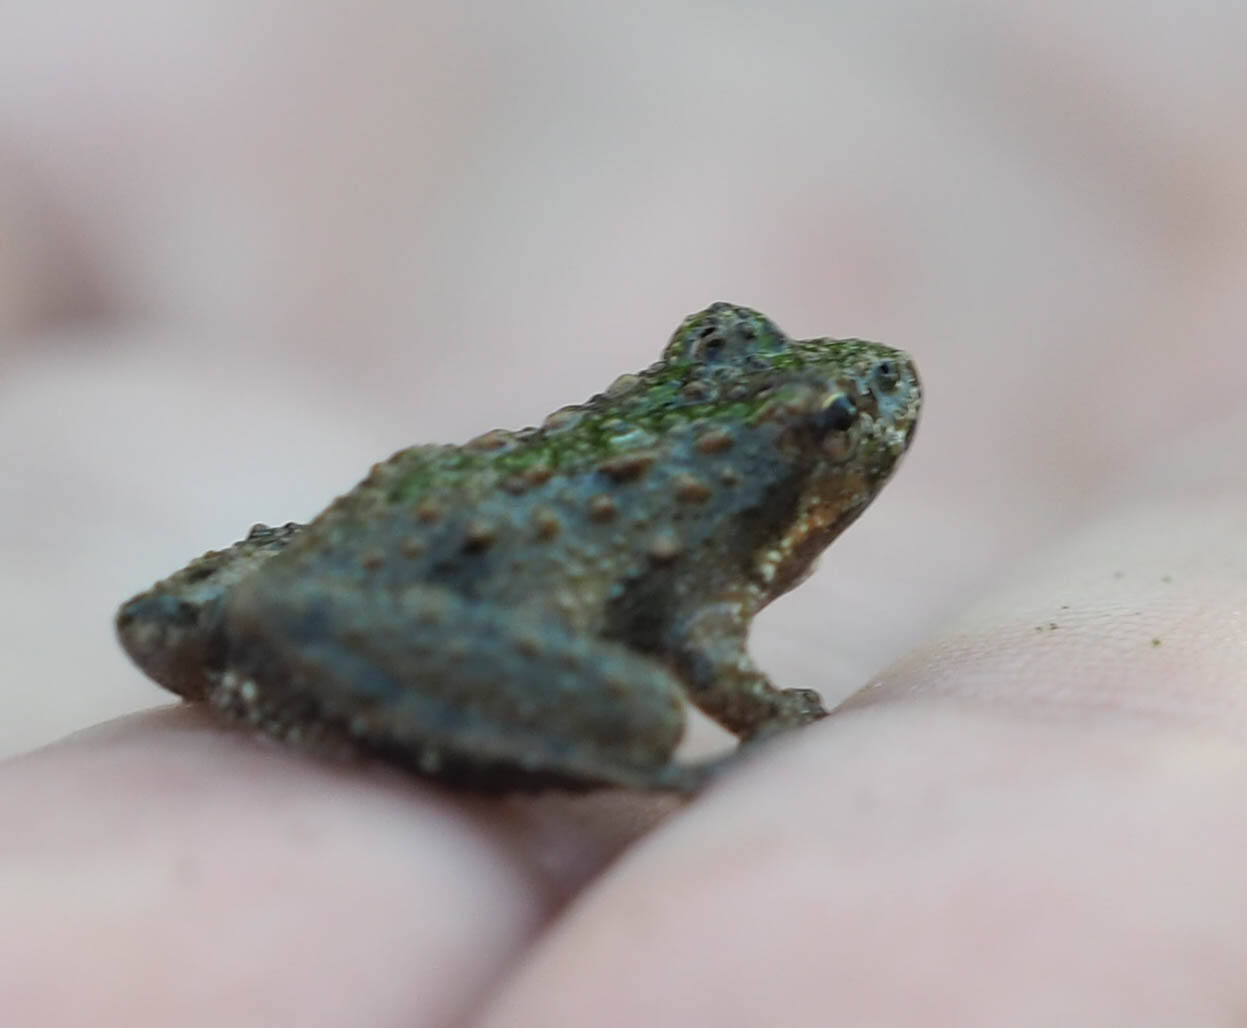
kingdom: Animalia
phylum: Chordata
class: Amphibia
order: Anura
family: Hylidae
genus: Acris
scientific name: Acris crepitans
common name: Northern cricket frog
